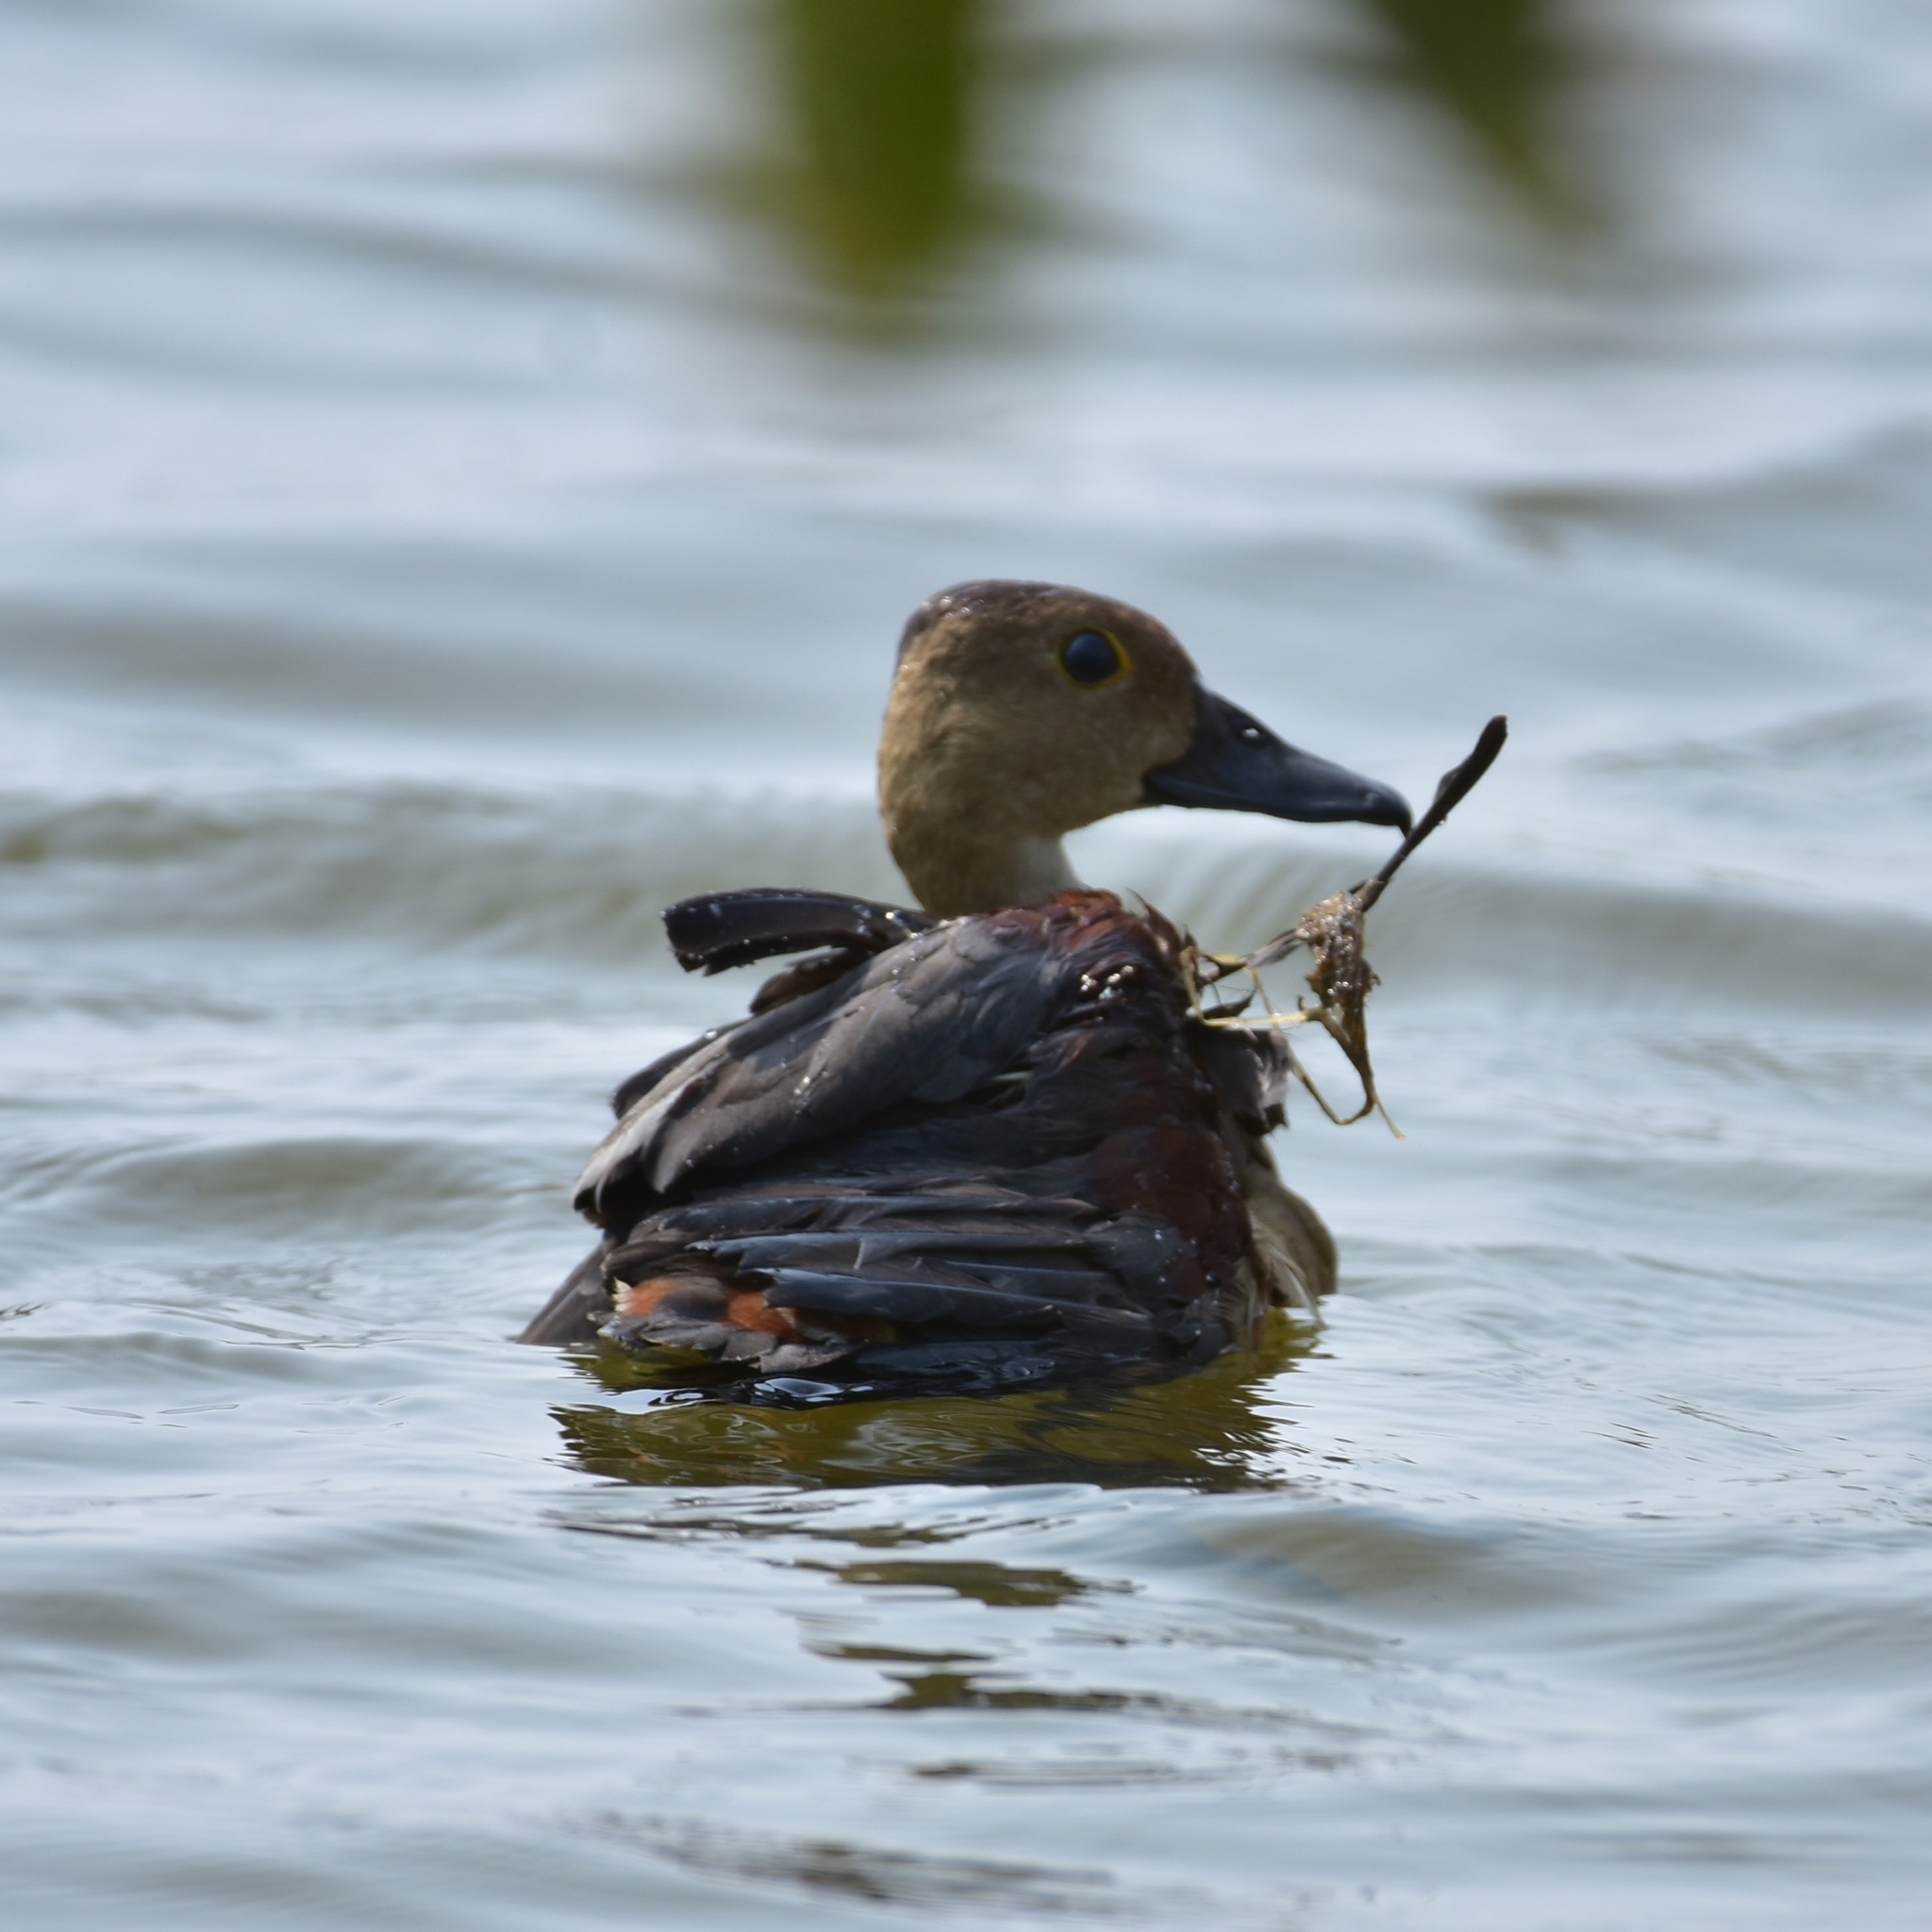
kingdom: Animalia
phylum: Chordata
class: Aves
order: Anseriformes
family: Anatidae
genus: Dendrocygna
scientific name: Dendrocygna javanica
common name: Lesser whistling-duck
